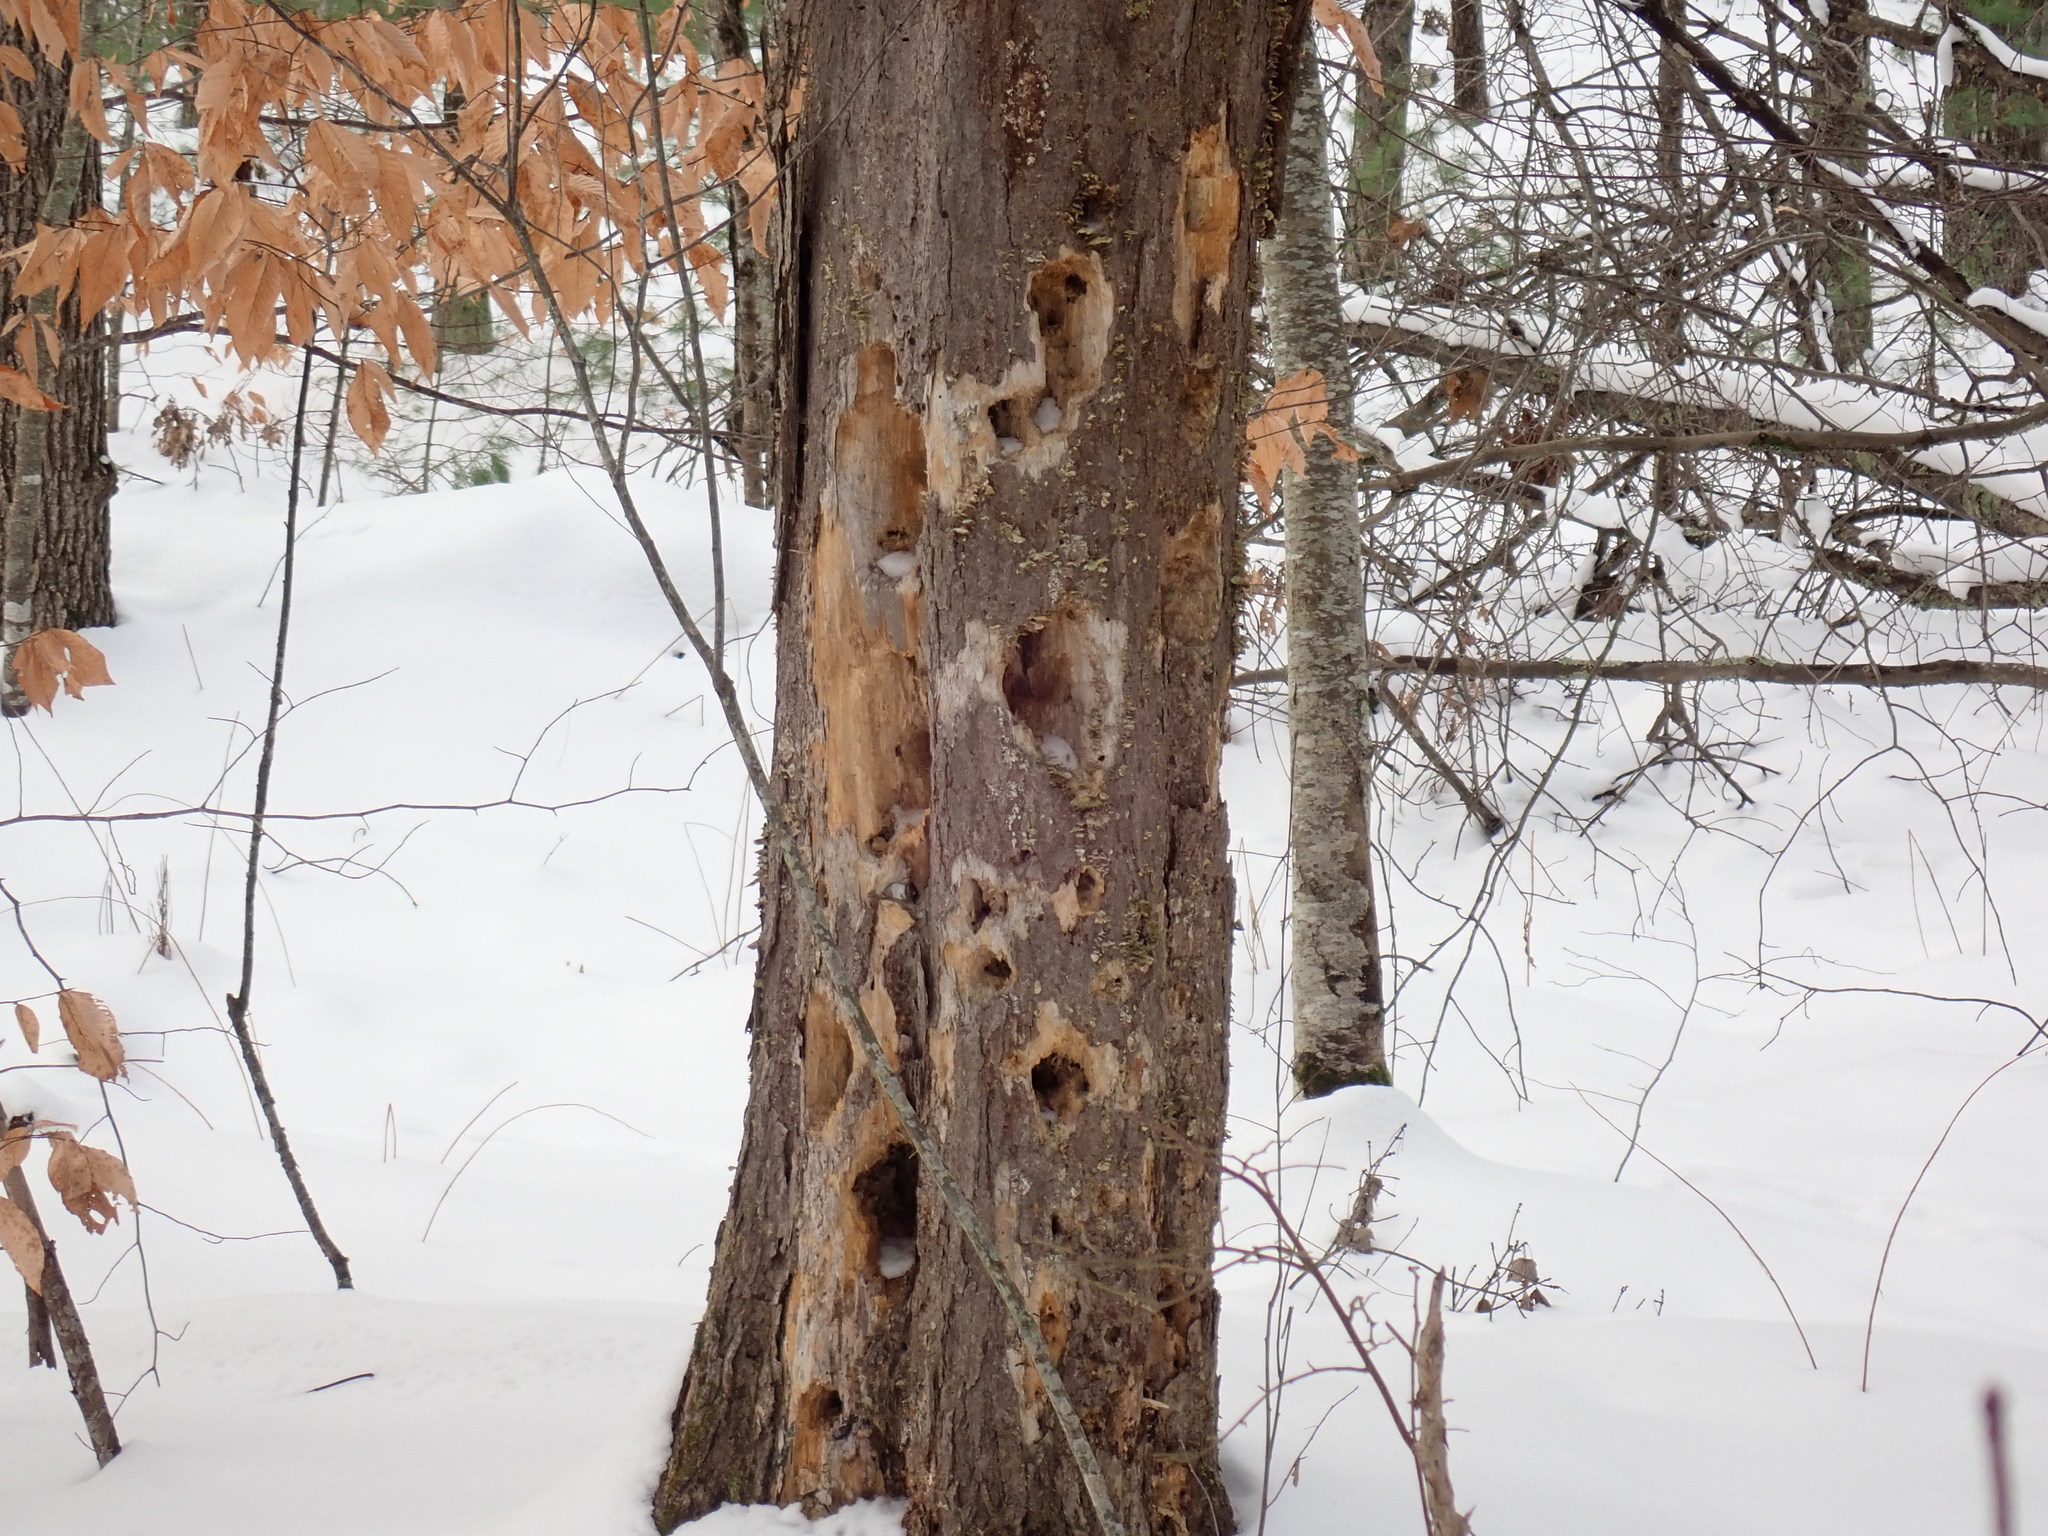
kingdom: Animalia
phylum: Chordata
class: Aves
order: Piciformes
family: Picidae
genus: Dryocopus
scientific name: Dryocopus pileatus
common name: Pileated woodpecker
